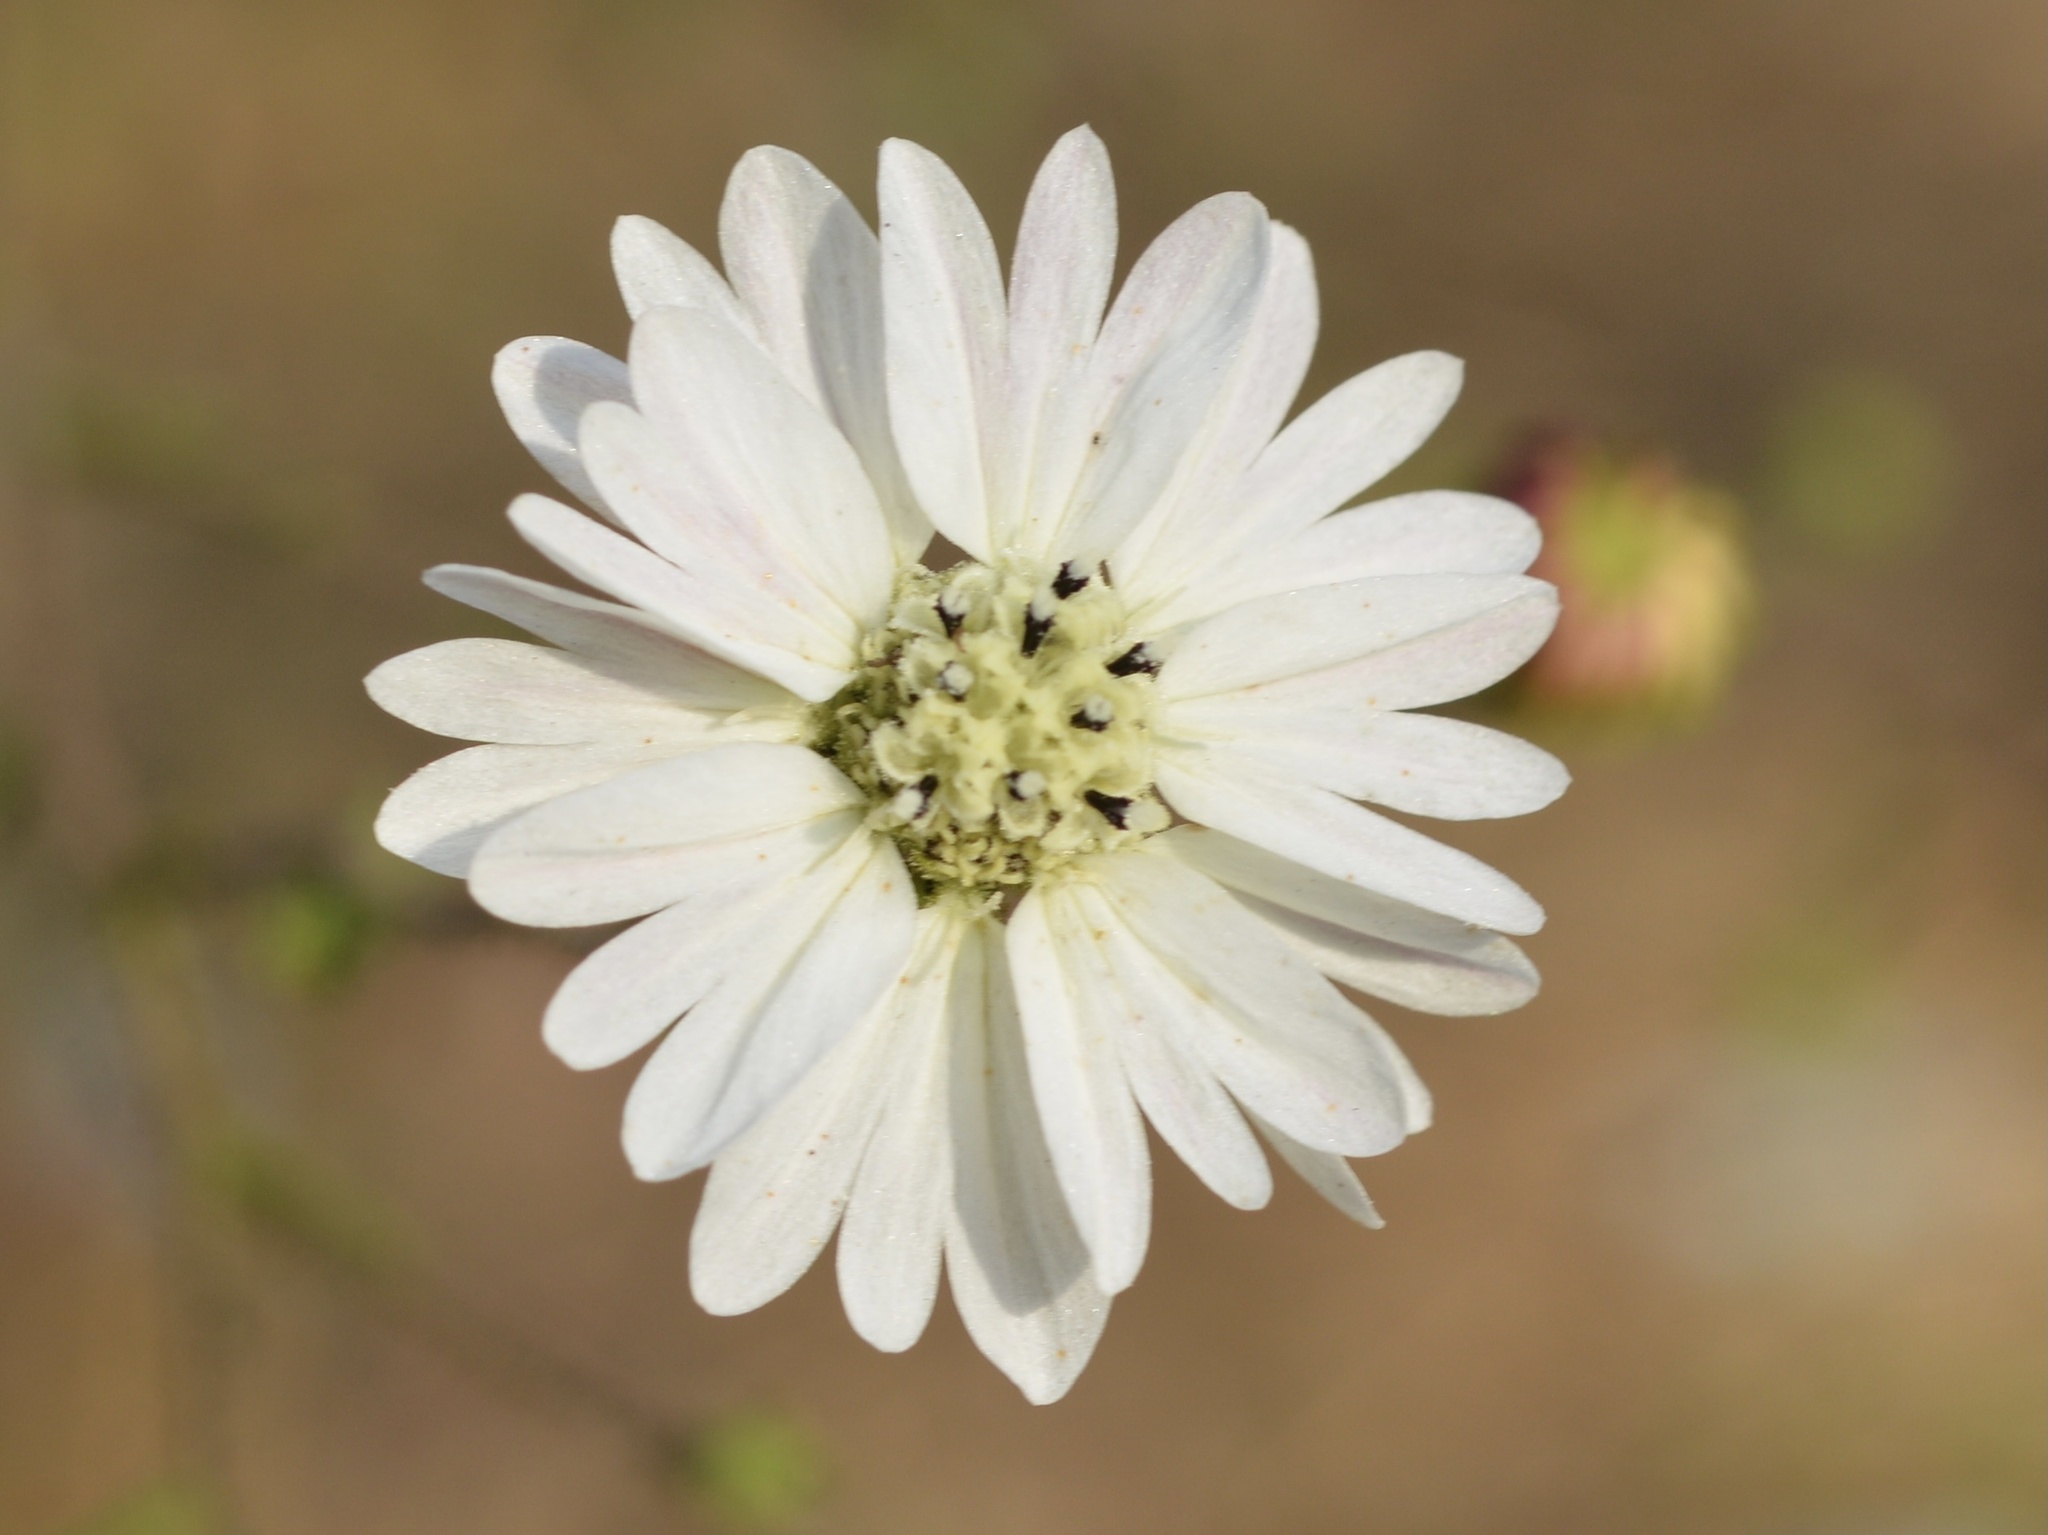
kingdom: Plantae
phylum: Tracheophyta
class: Magnoliopsida
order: Asterales
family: Asteraceae
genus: Hemizonia
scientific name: Hemizonia congesta
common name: Hayfield tarweed
